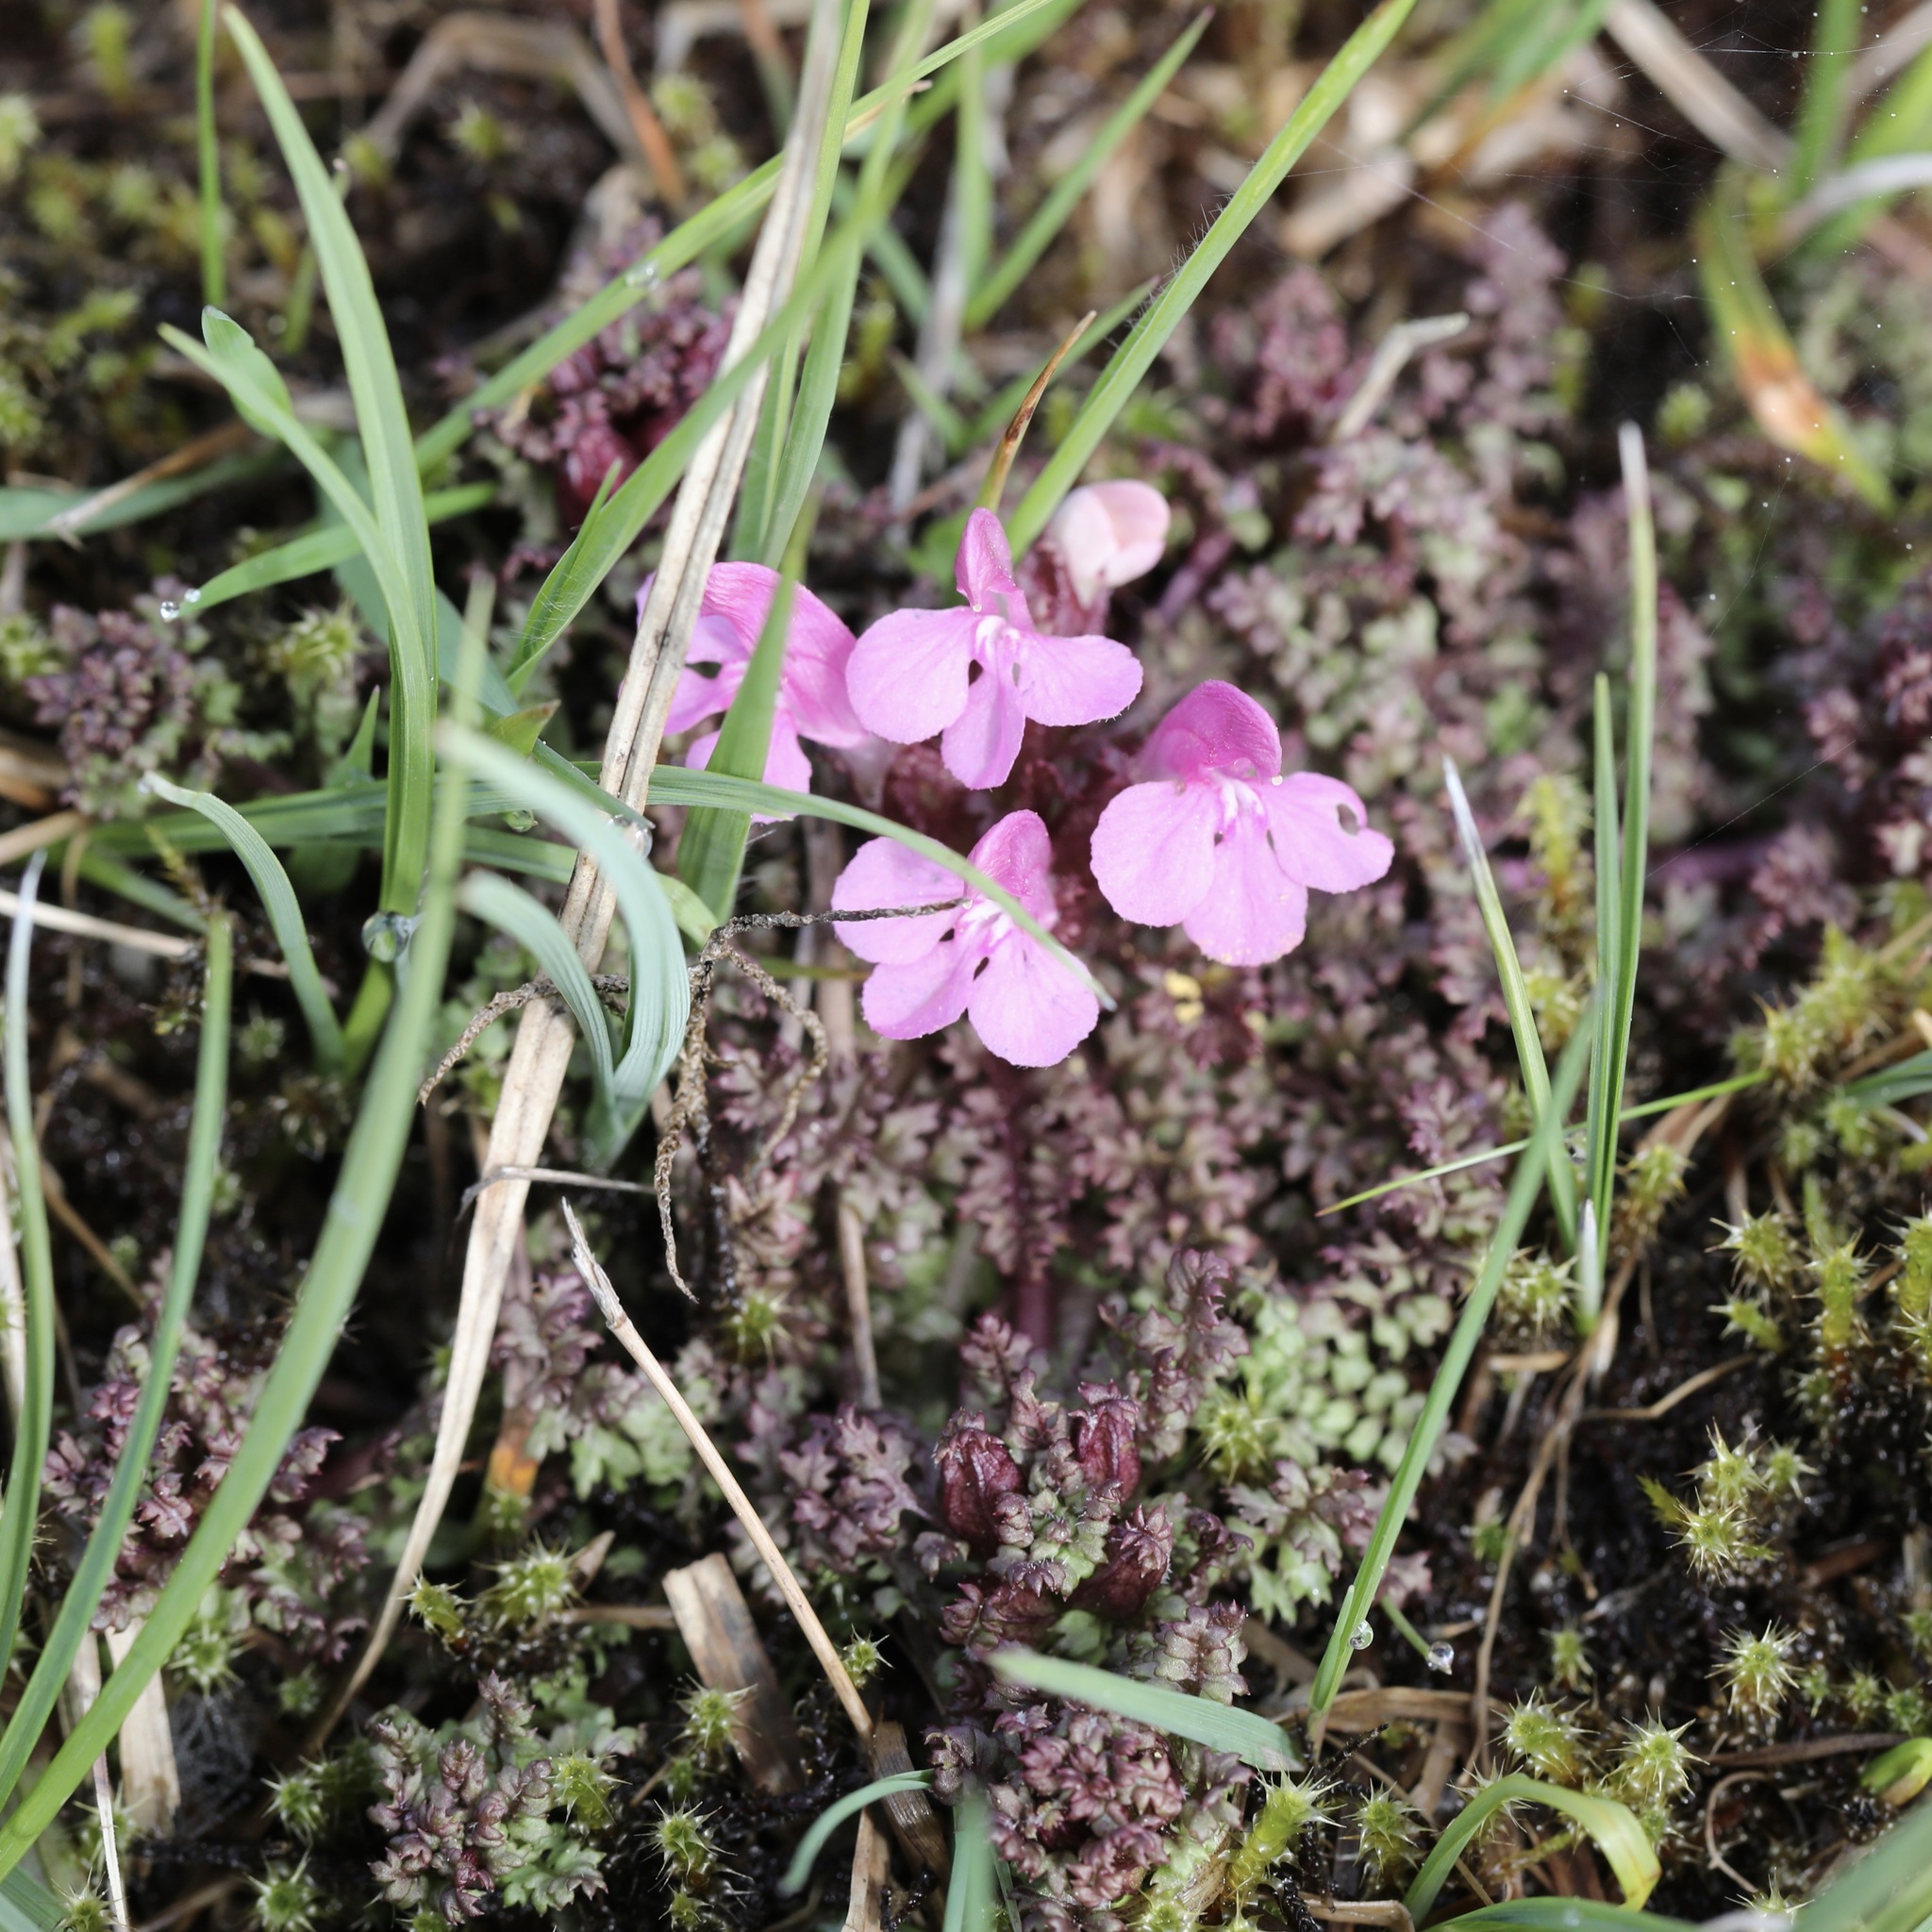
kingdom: Plantae
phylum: Tracheophyta
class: Magnoliopsida
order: Lamiales
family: Orobanchaceae
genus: Pedicularis
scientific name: Pedicularis sylvatica
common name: Lousewort
